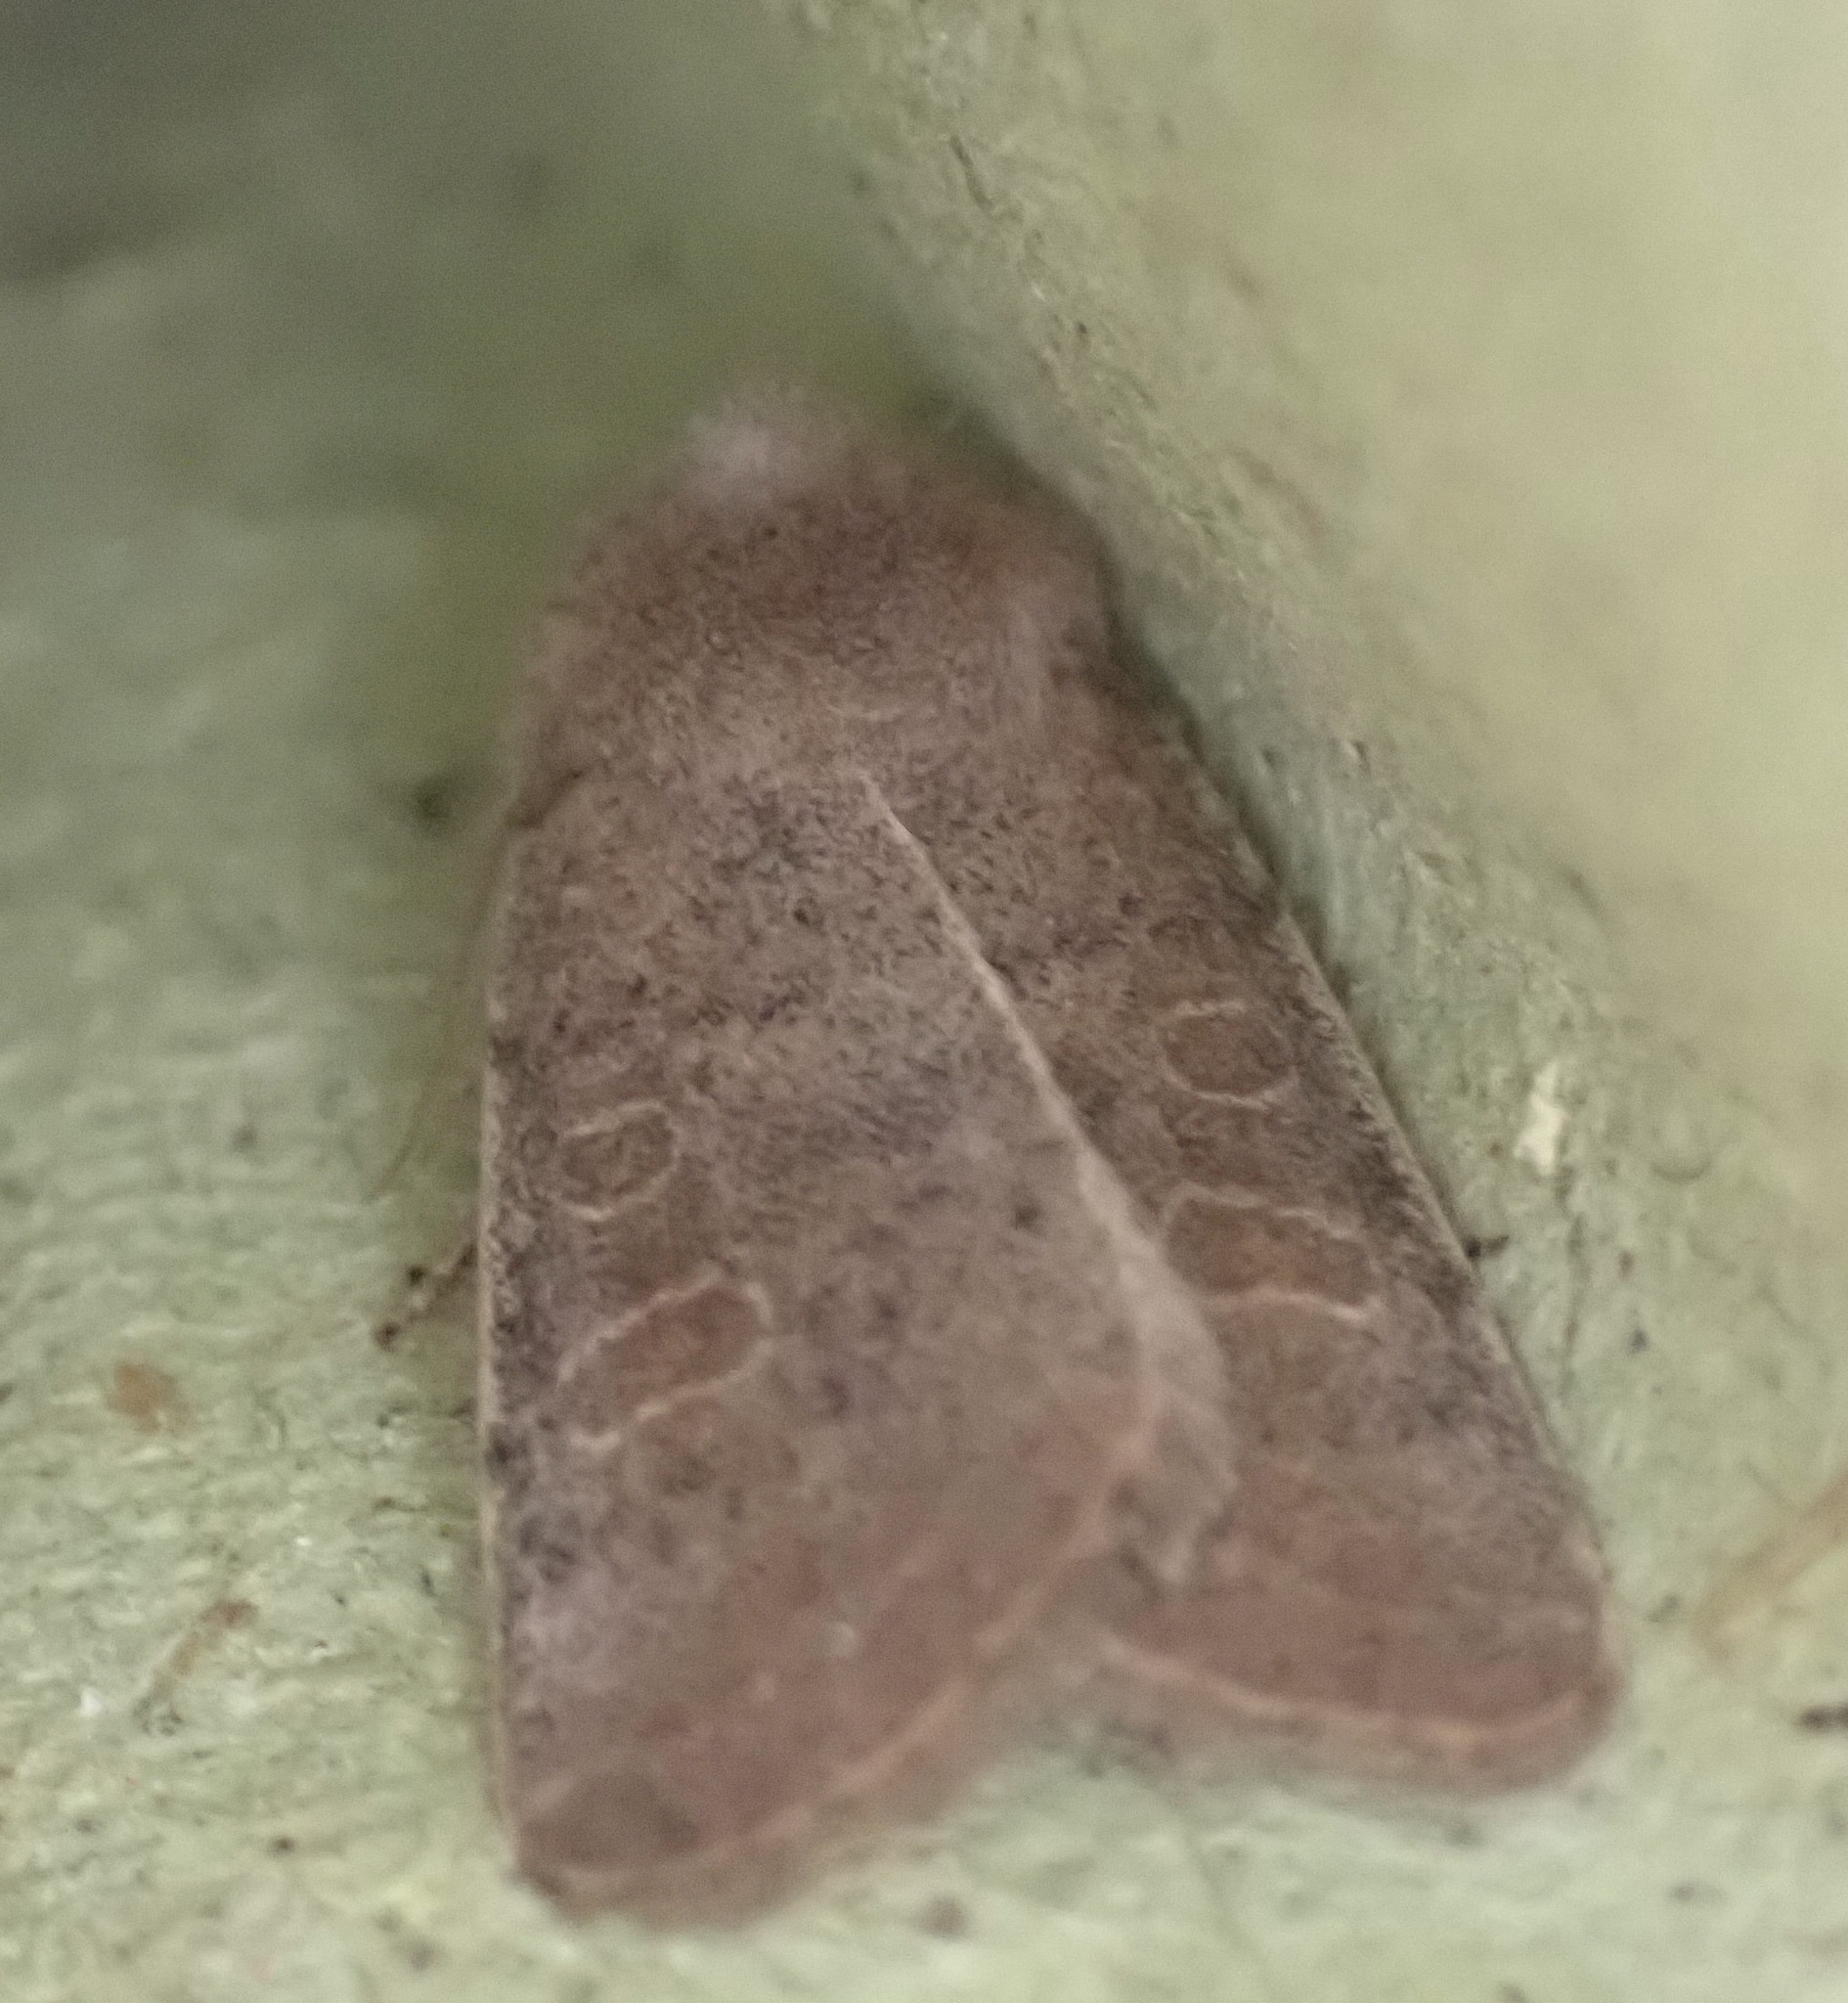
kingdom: Animalia
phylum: Arthropoda
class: Insecta
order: Lepidoptera
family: Noctuidae
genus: Hoplodrina
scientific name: Hoplodrina ambigua
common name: Vine's rustic
